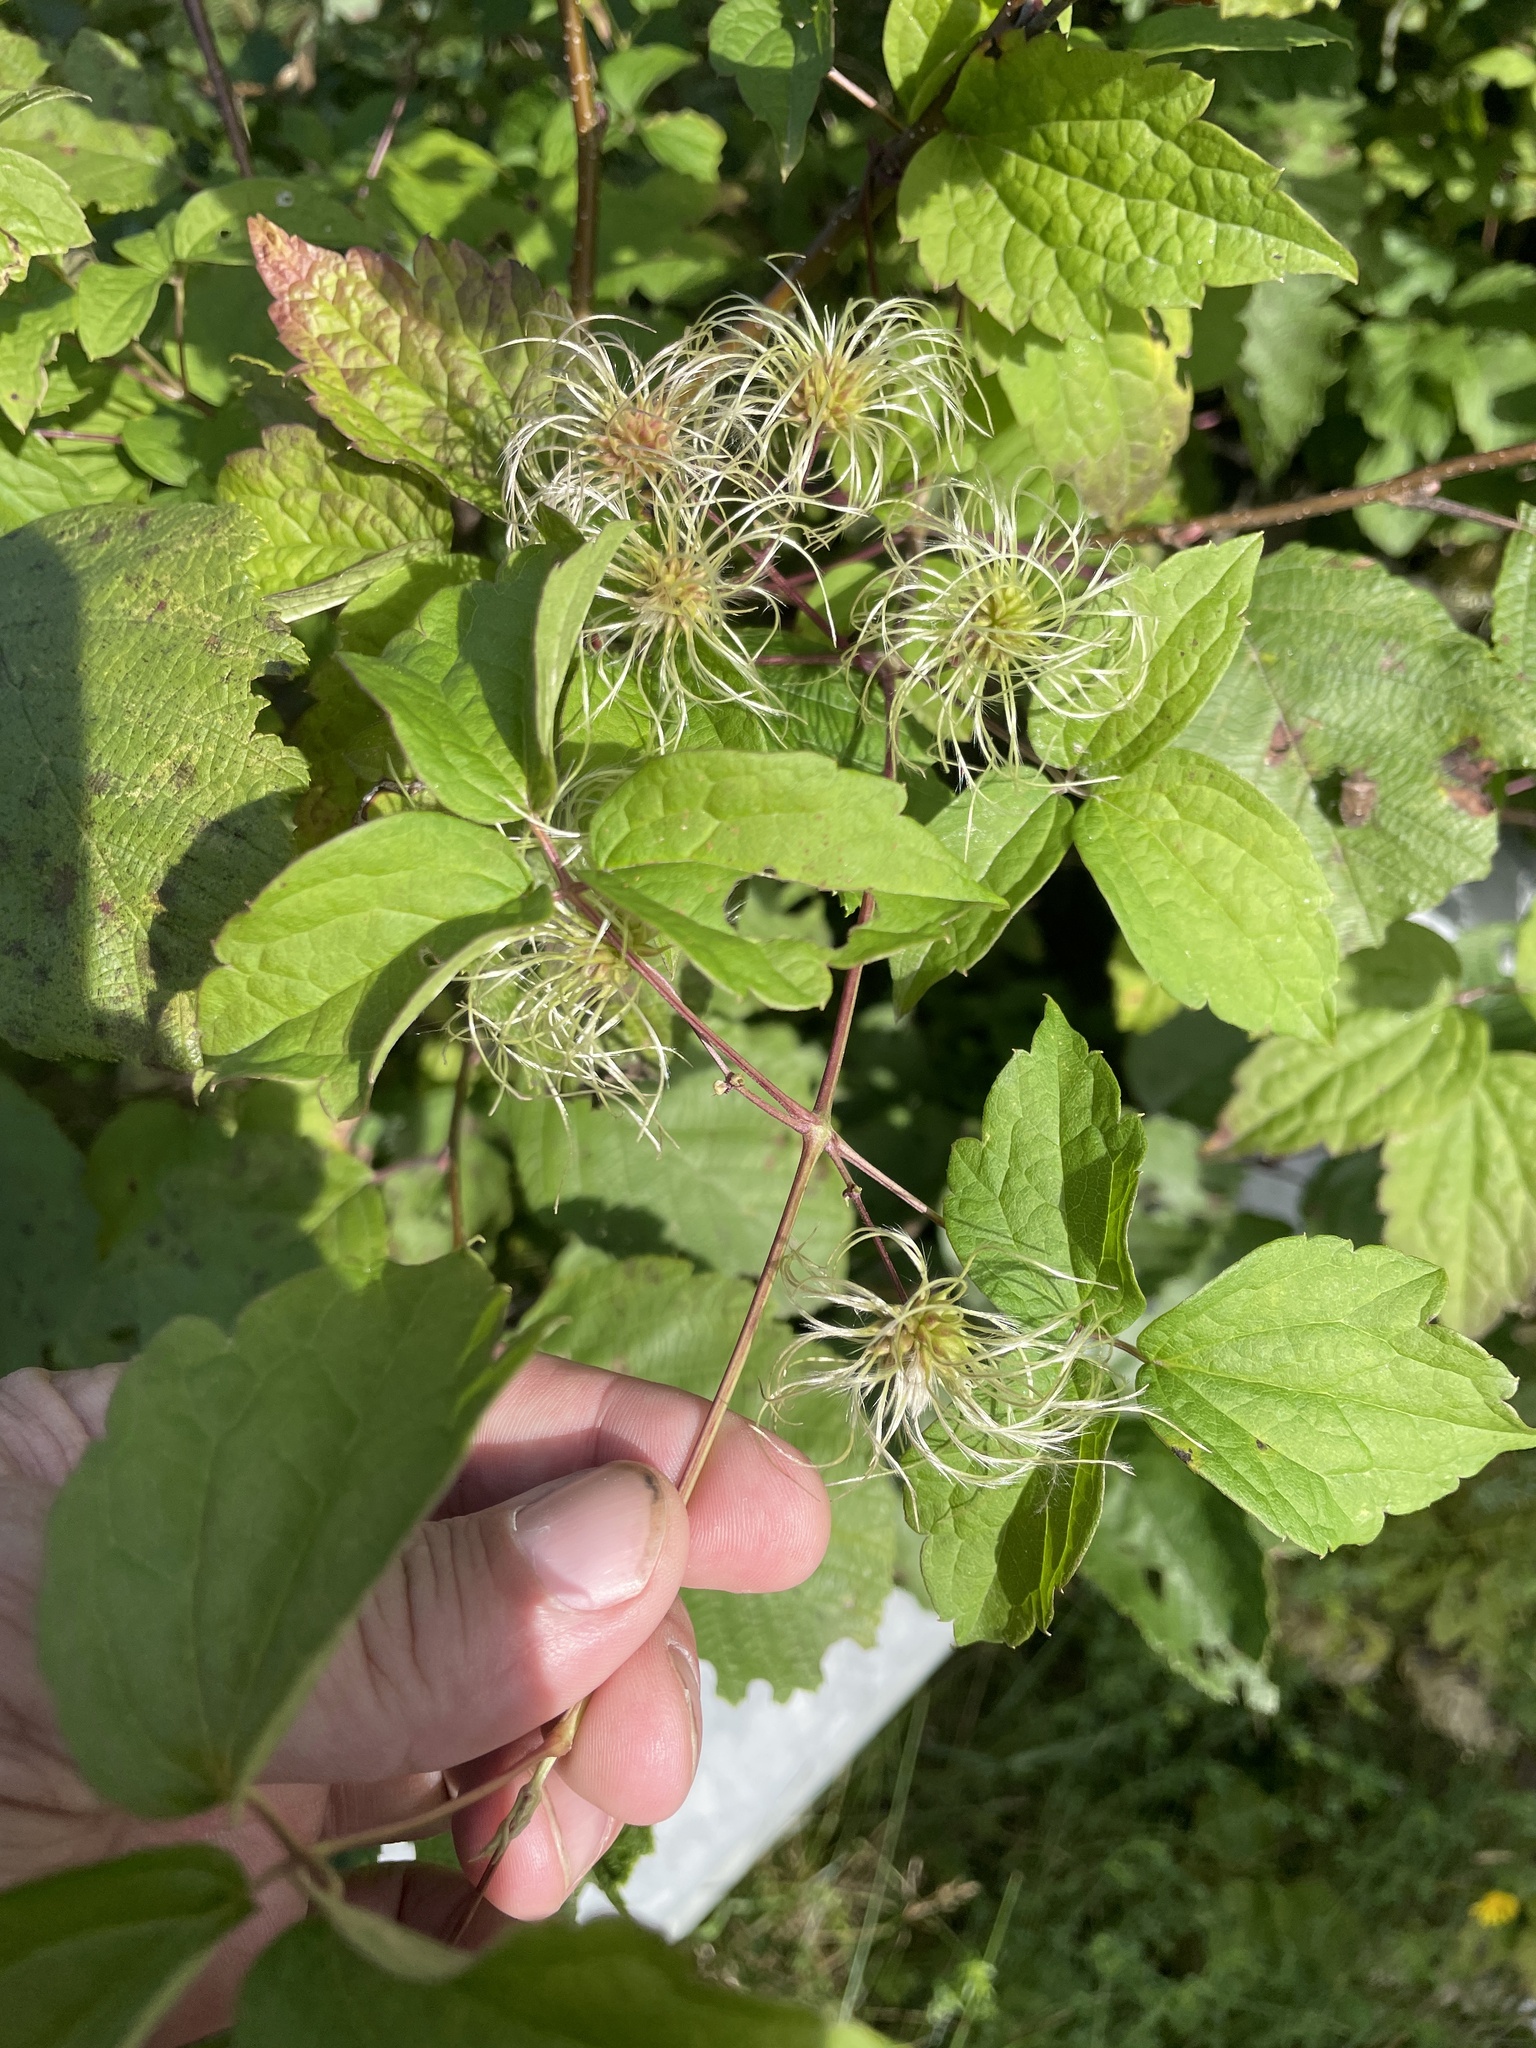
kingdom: Plantae
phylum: Tracheophyta
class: Magnoliopsida
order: Ranunculales
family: Ranunculaceae
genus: Clematis
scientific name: Clematis virginiana
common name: Virgin's-bower
